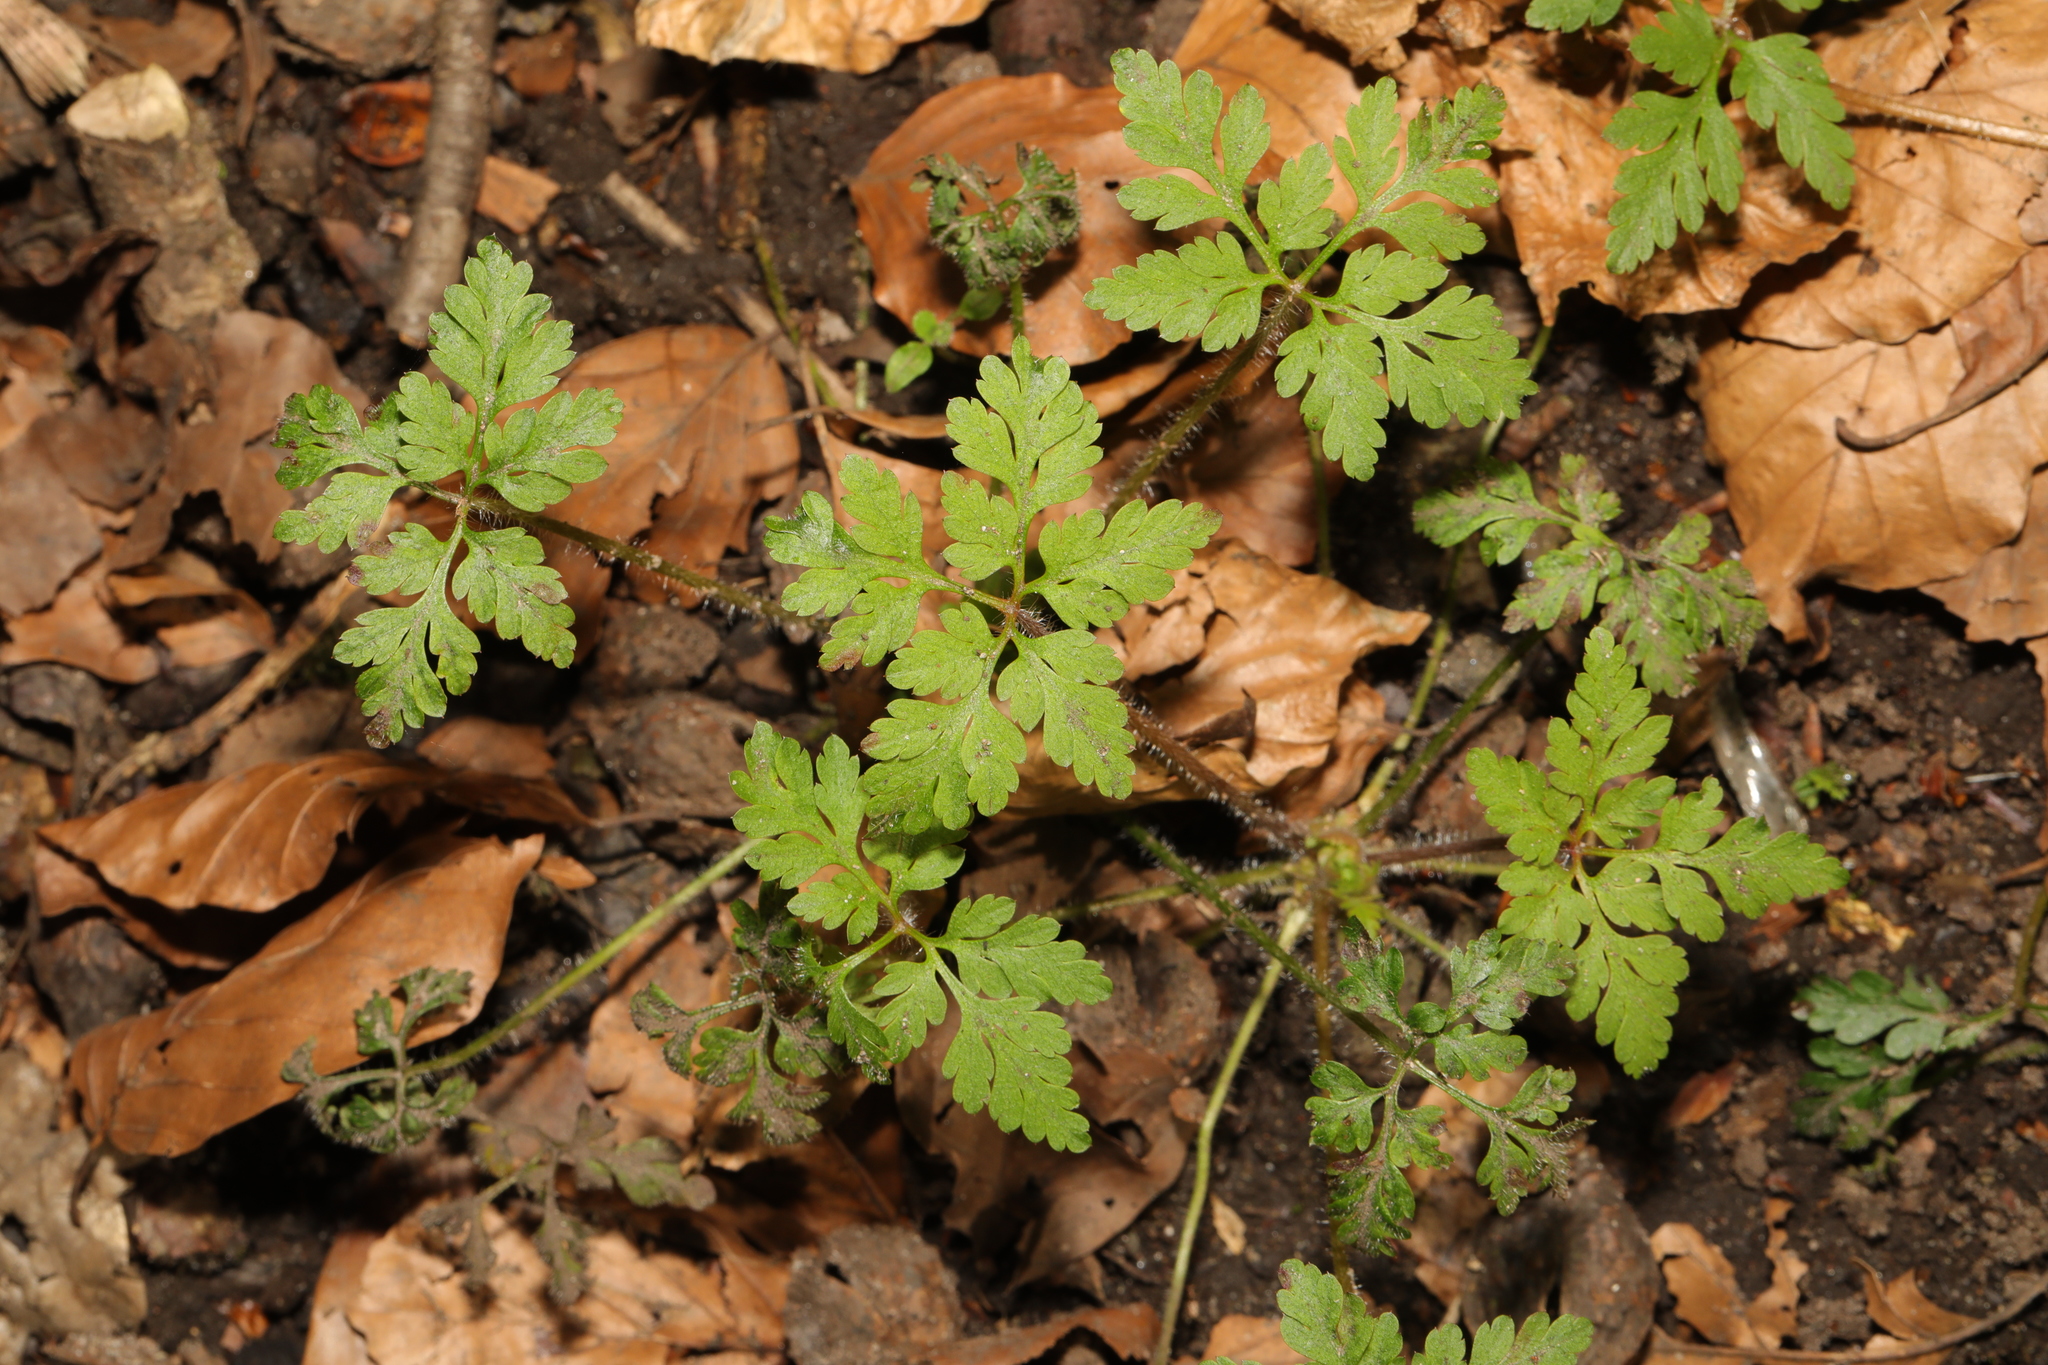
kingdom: Plantae
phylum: Tracheophyta
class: Magnoliopsida
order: Geraniales
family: Geraniaceae
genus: Geranium
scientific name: Geranium robertianum
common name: Herb-robert
